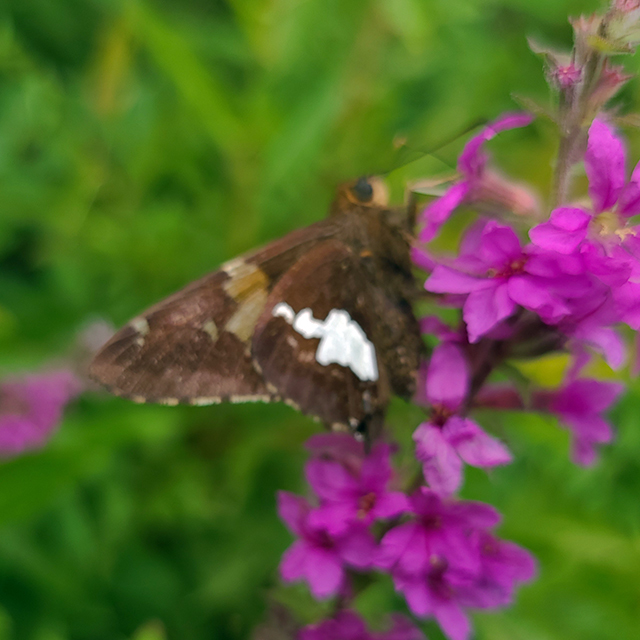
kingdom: Animalia
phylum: Arthropoda
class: Insecta
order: Lepidoptera
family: Hesperiidae
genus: Epargyreus
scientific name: Epargyreus clarus
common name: Silver-spotted skipper
